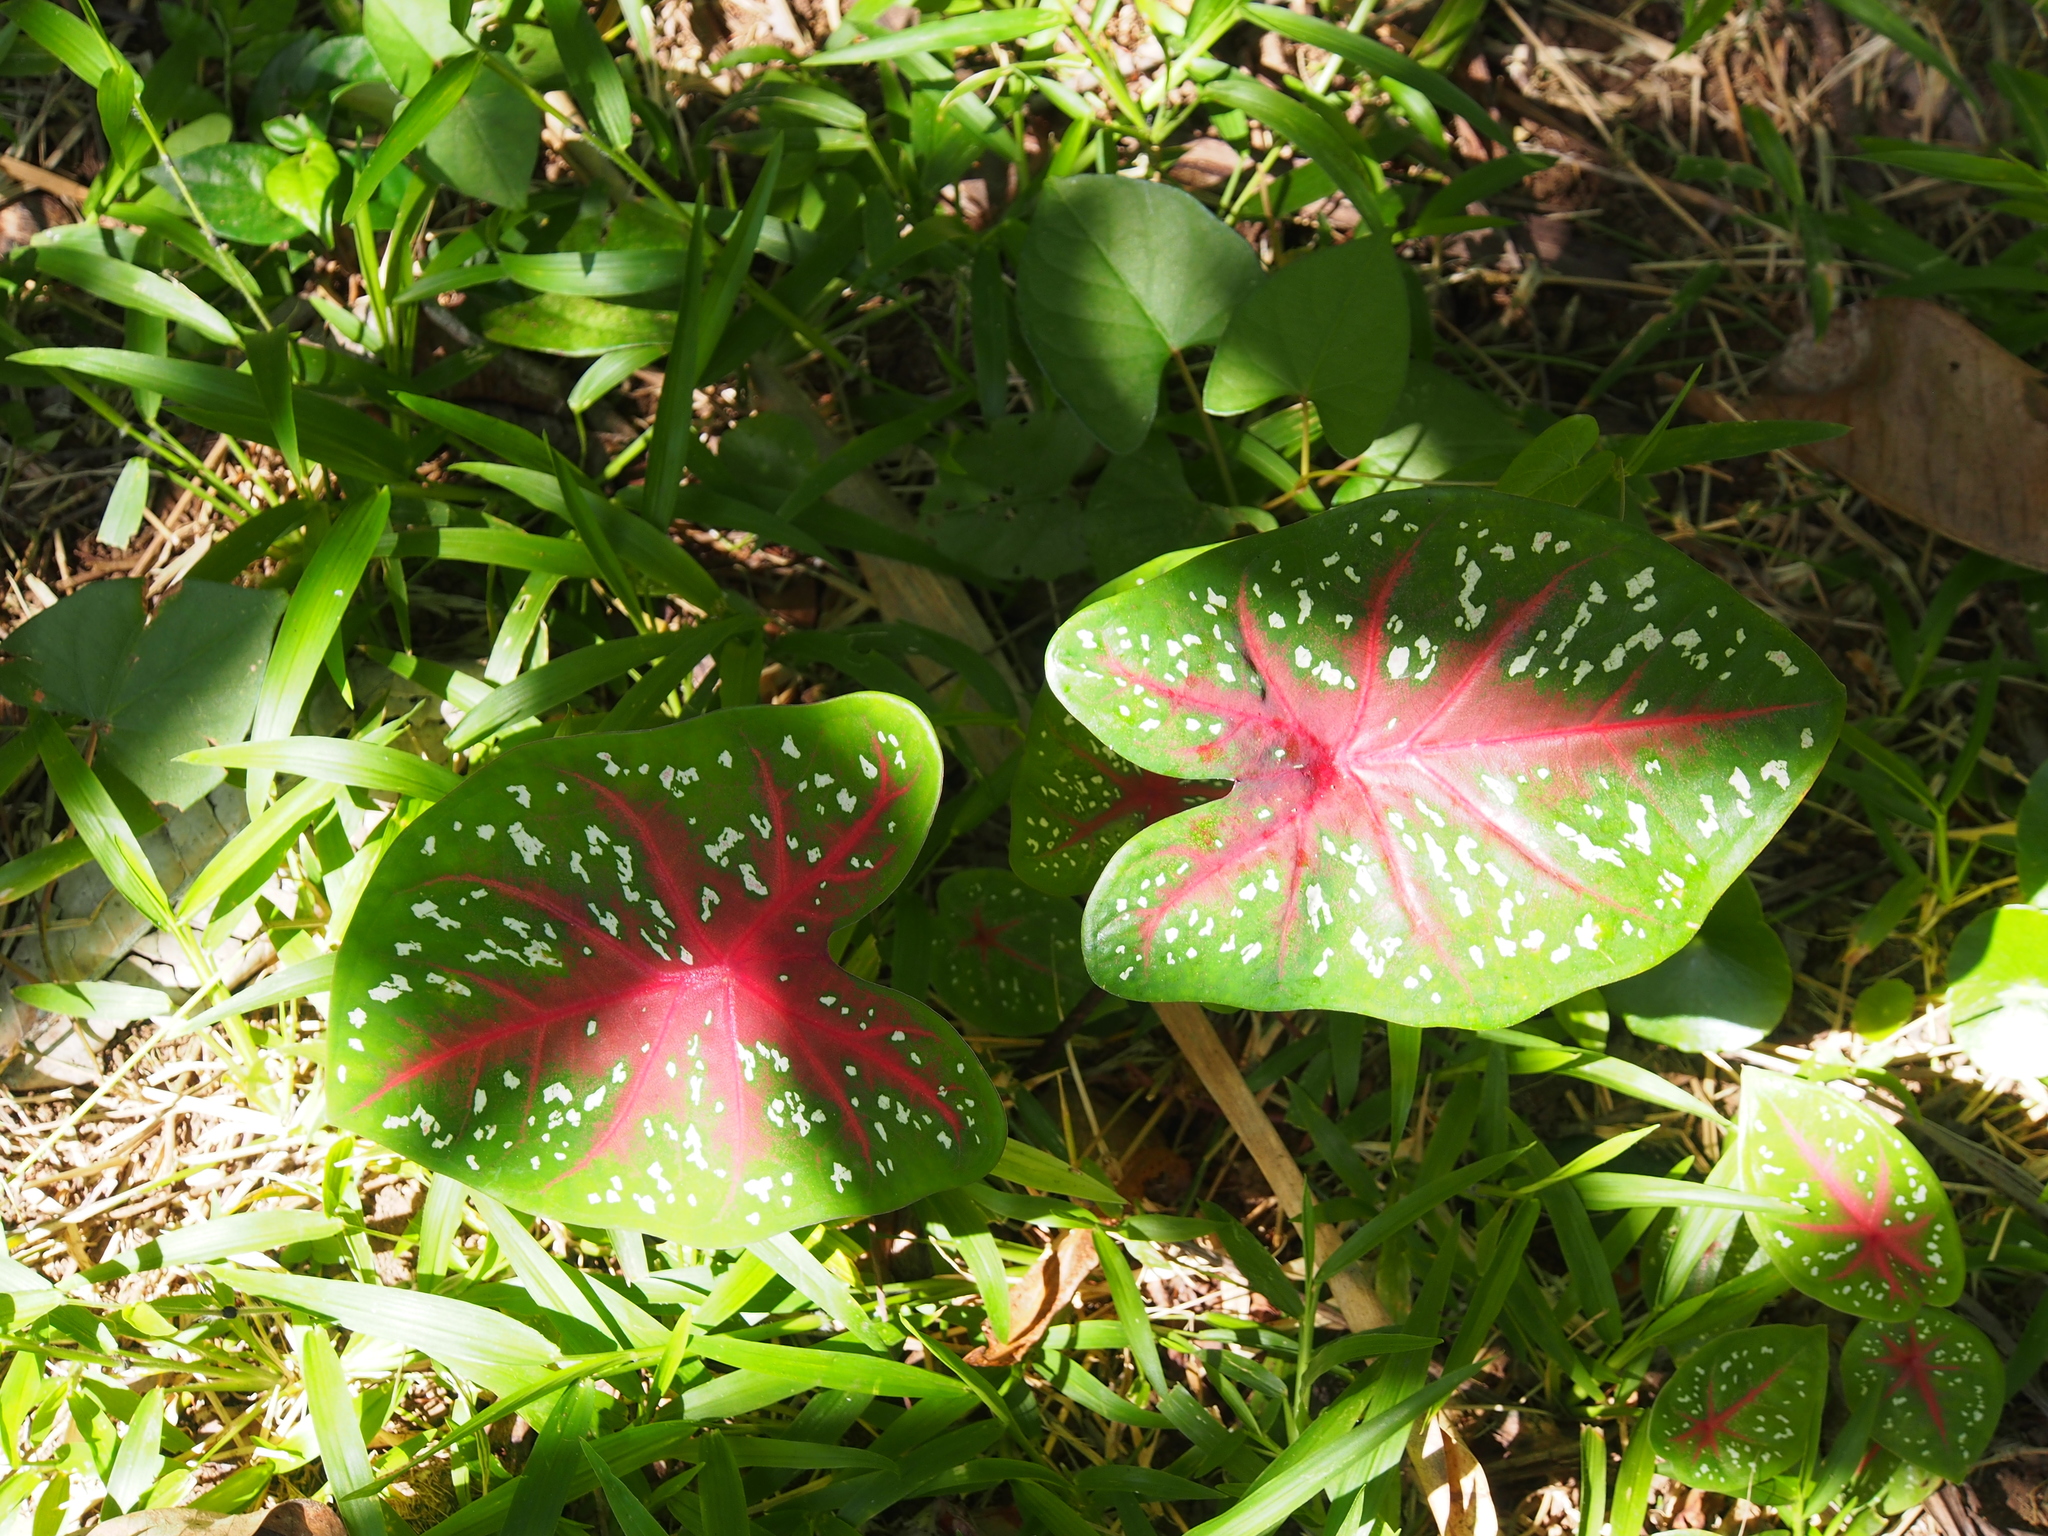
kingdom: Plantae
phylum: Tracheophyta
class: Liliopsida
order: Alismatales
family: Araceae
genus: Caladium
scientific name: Caladium bicolor
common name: Artist's pallet
